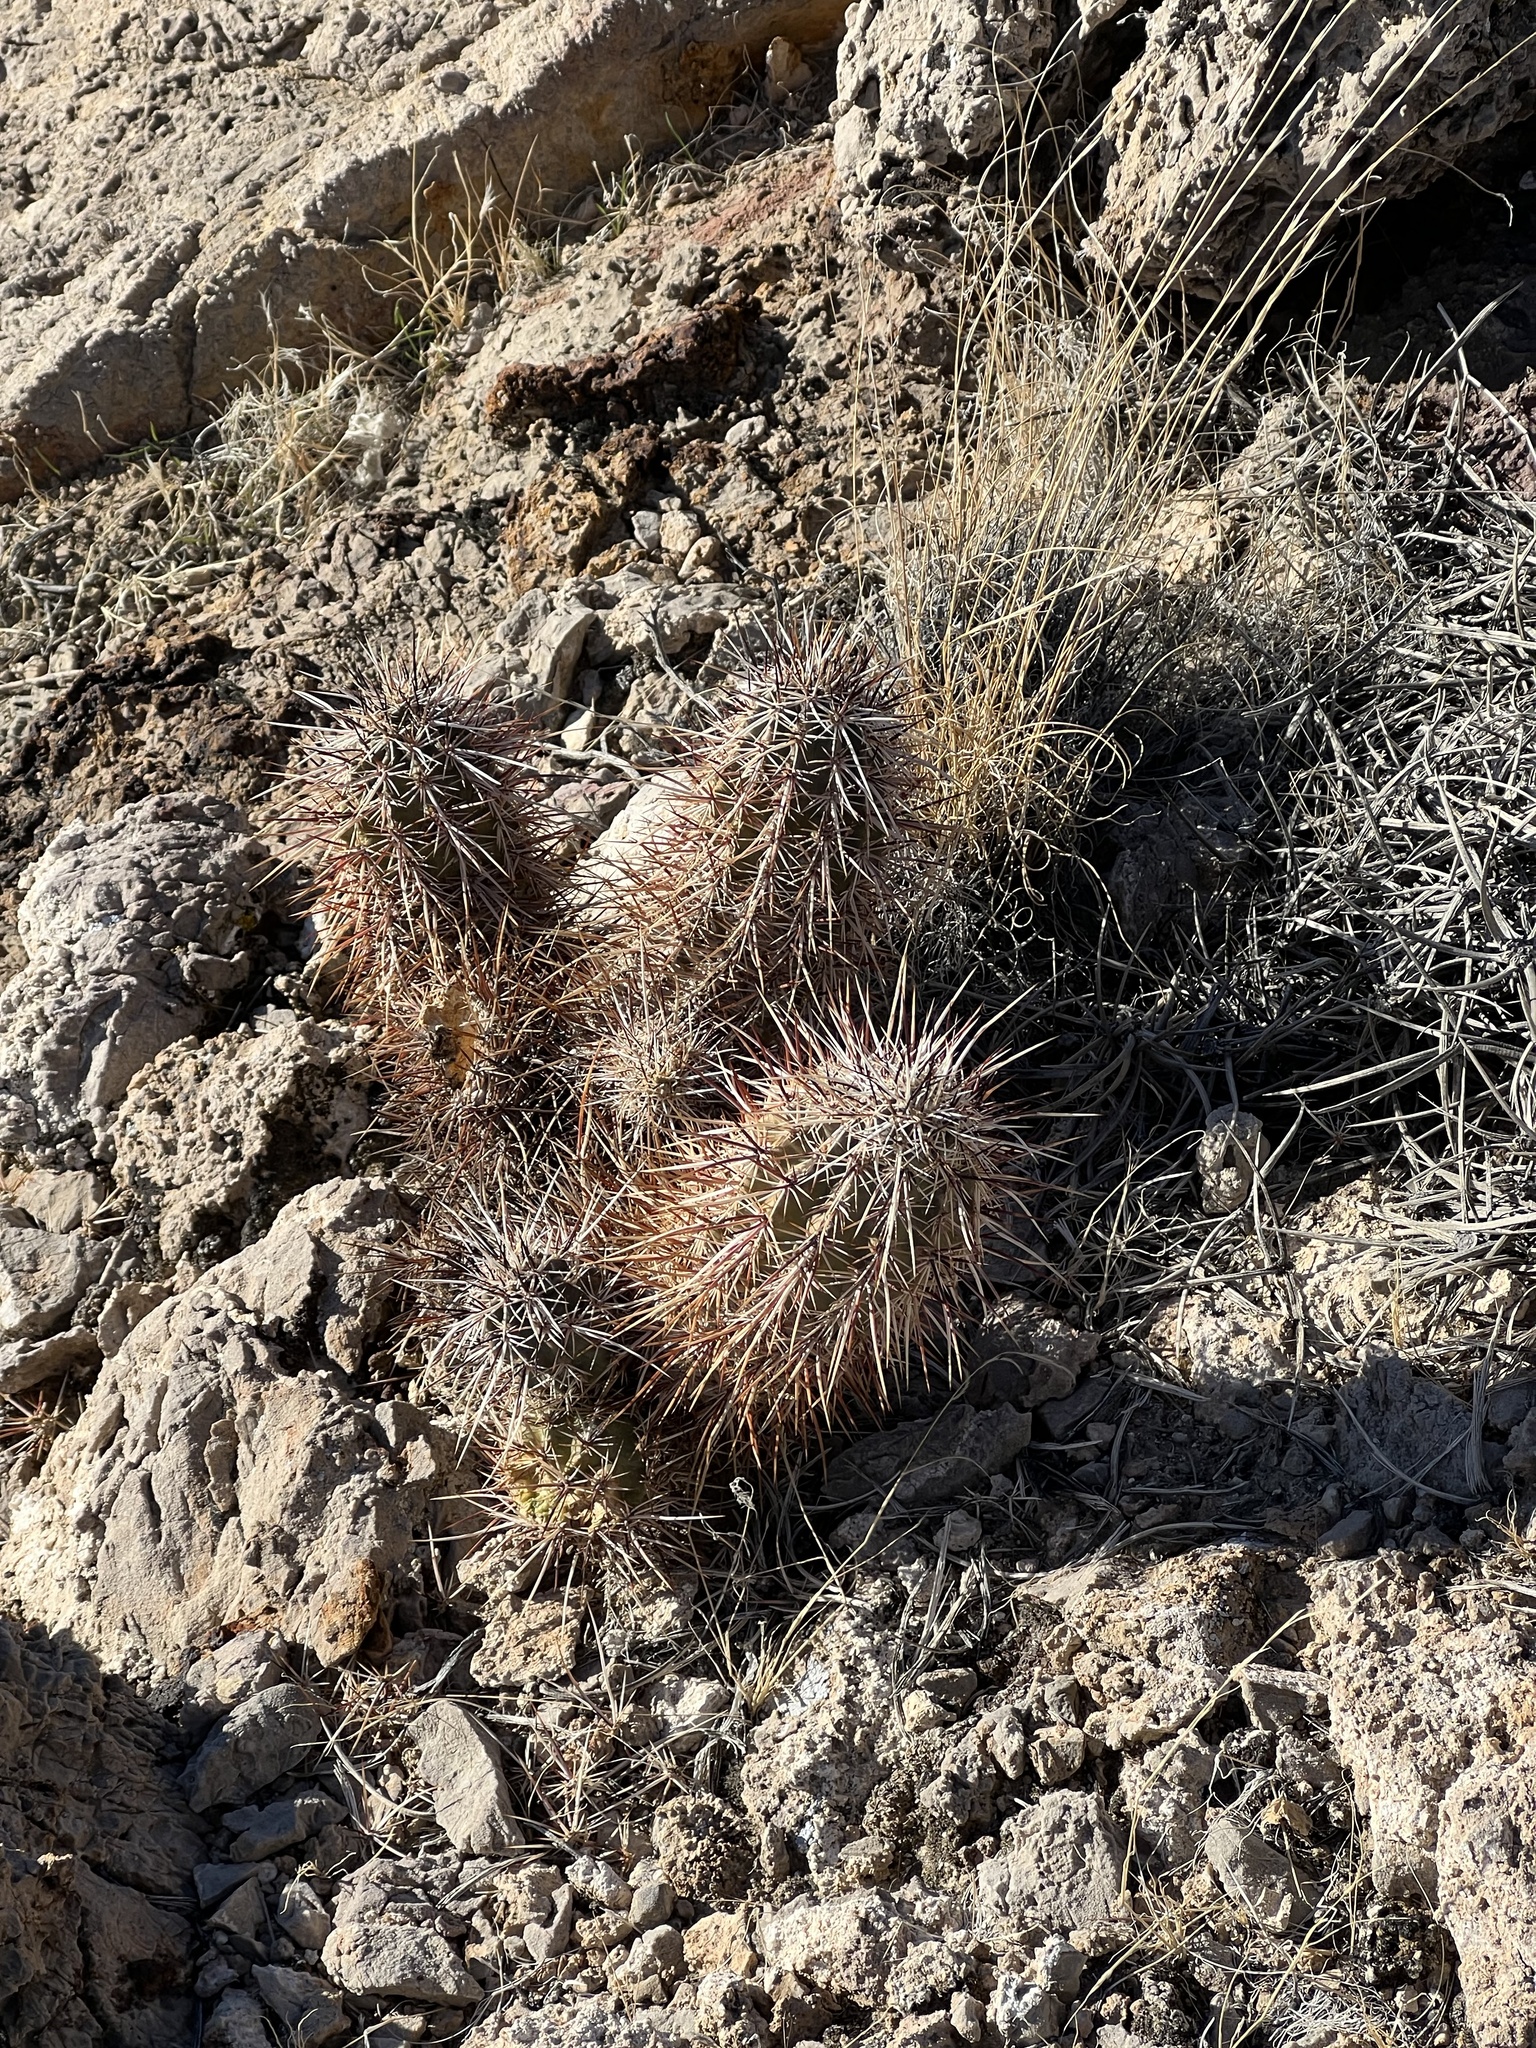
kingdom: Plantae
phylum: Tracheophyta
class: Magnoliopsida
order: Caryophyllales
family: Cactaceae
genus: Echinocereus
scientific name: Echinocereus engelmannii
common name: Engelmann's hedgehog cactus
